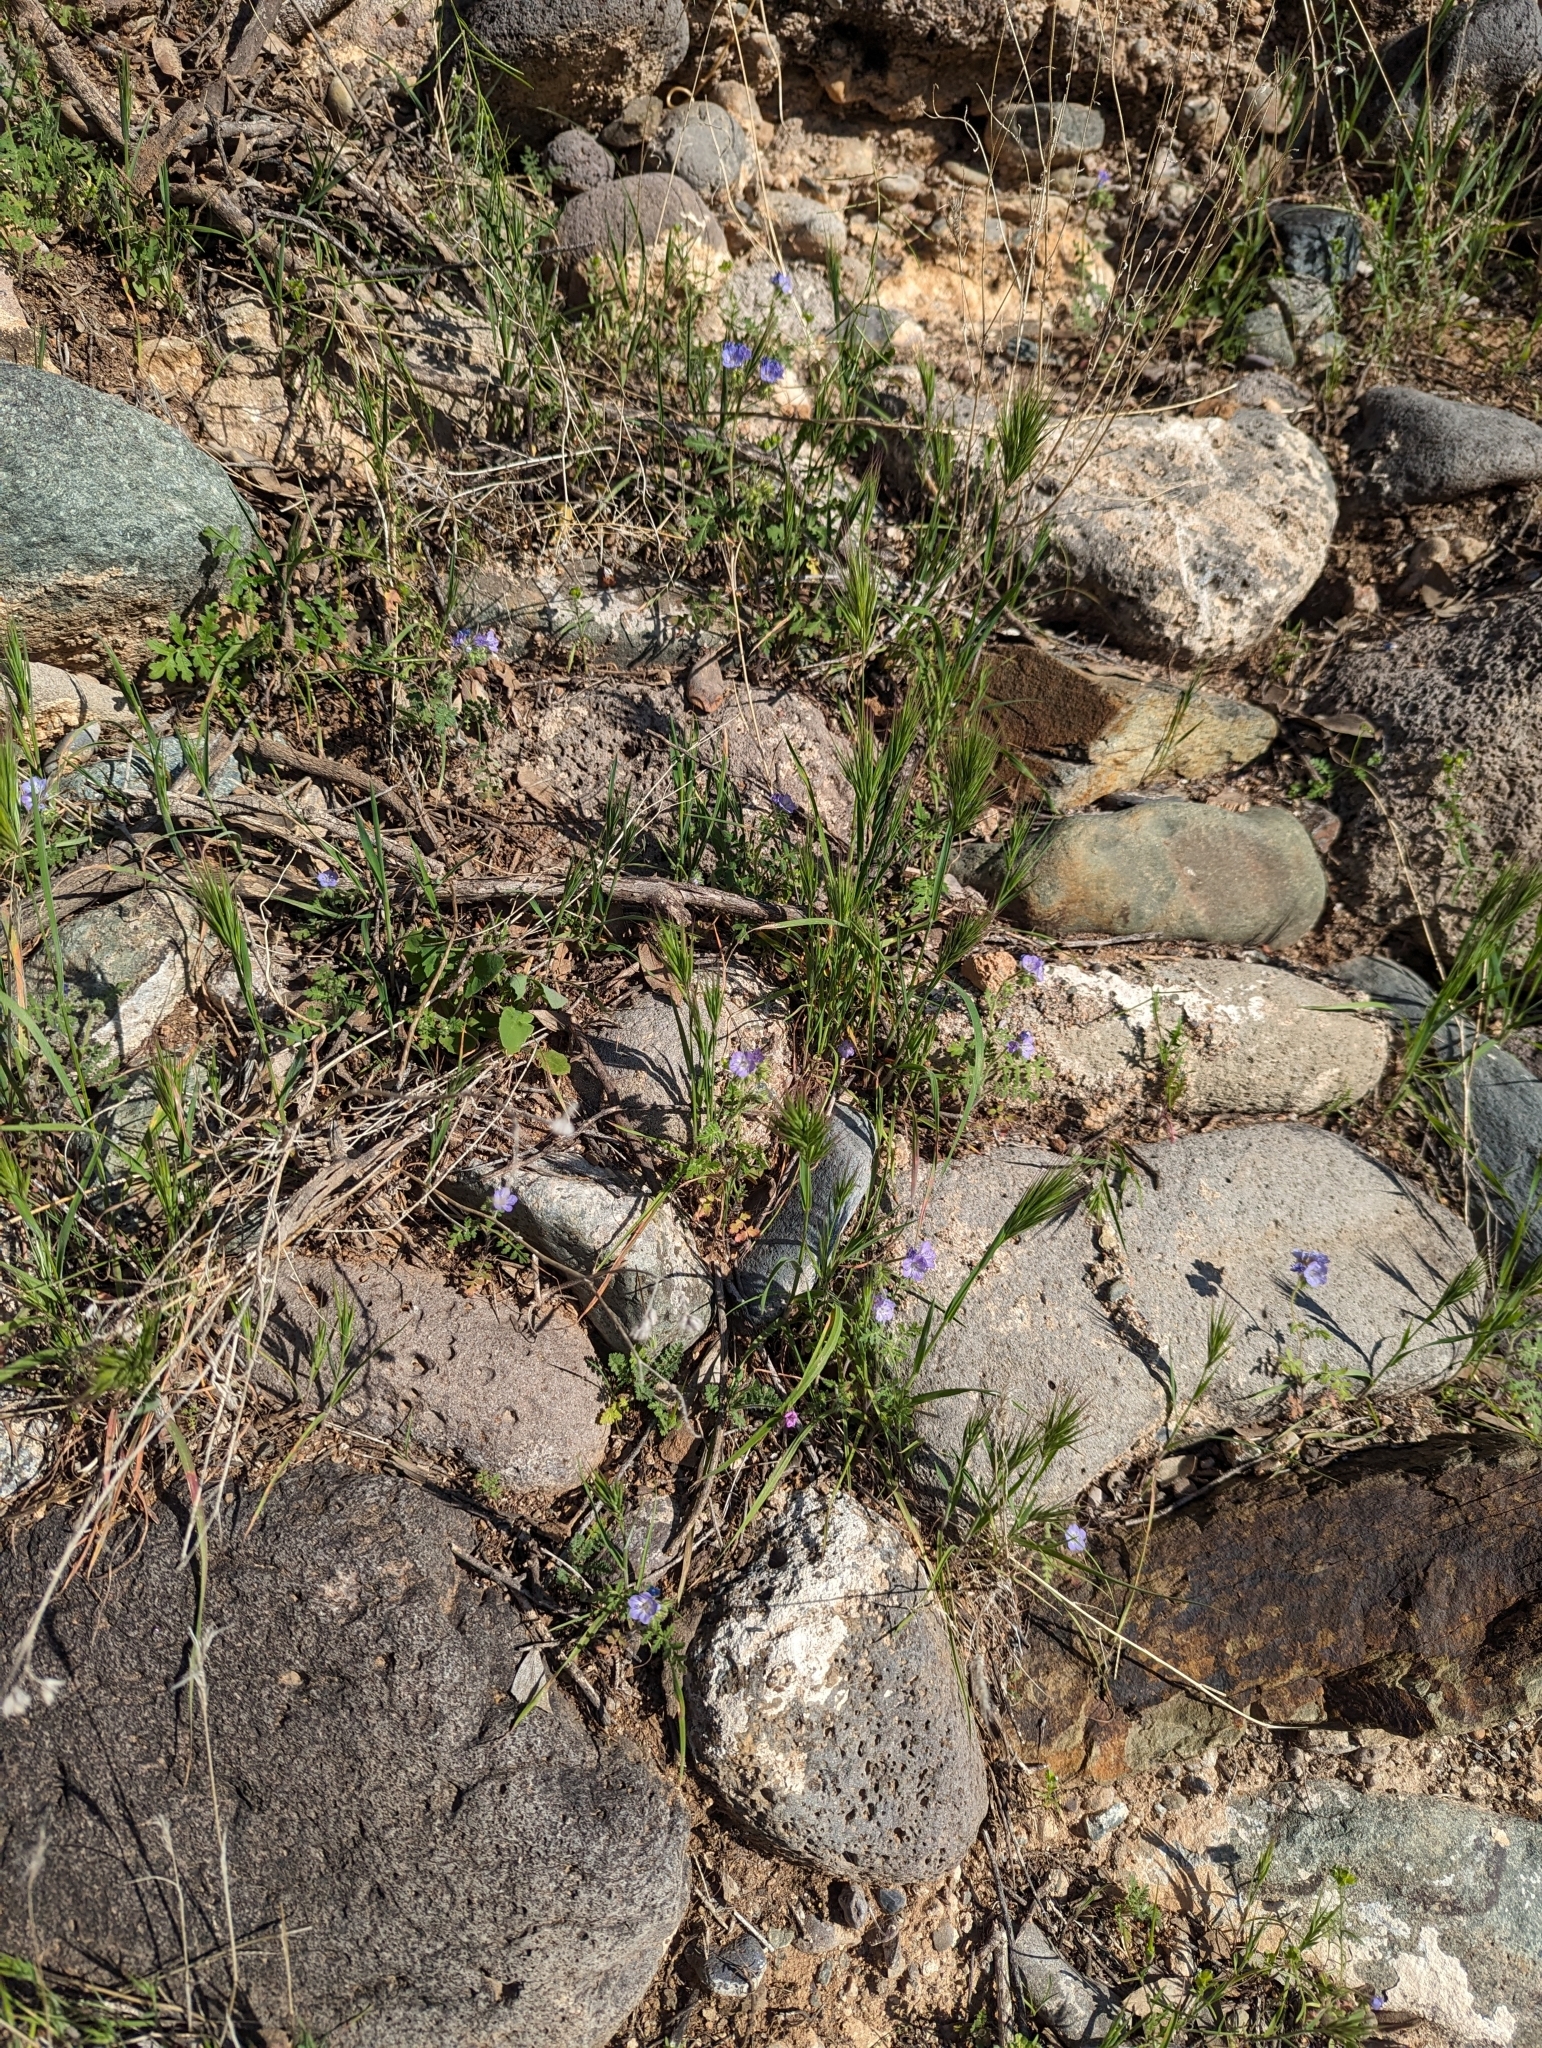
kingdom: Plantae
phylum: Tracheophyta
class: Magnoliopsida
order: Boraginales
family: Hydrophyllaceae
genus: Phacelia
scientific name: Phacelia gentryi
